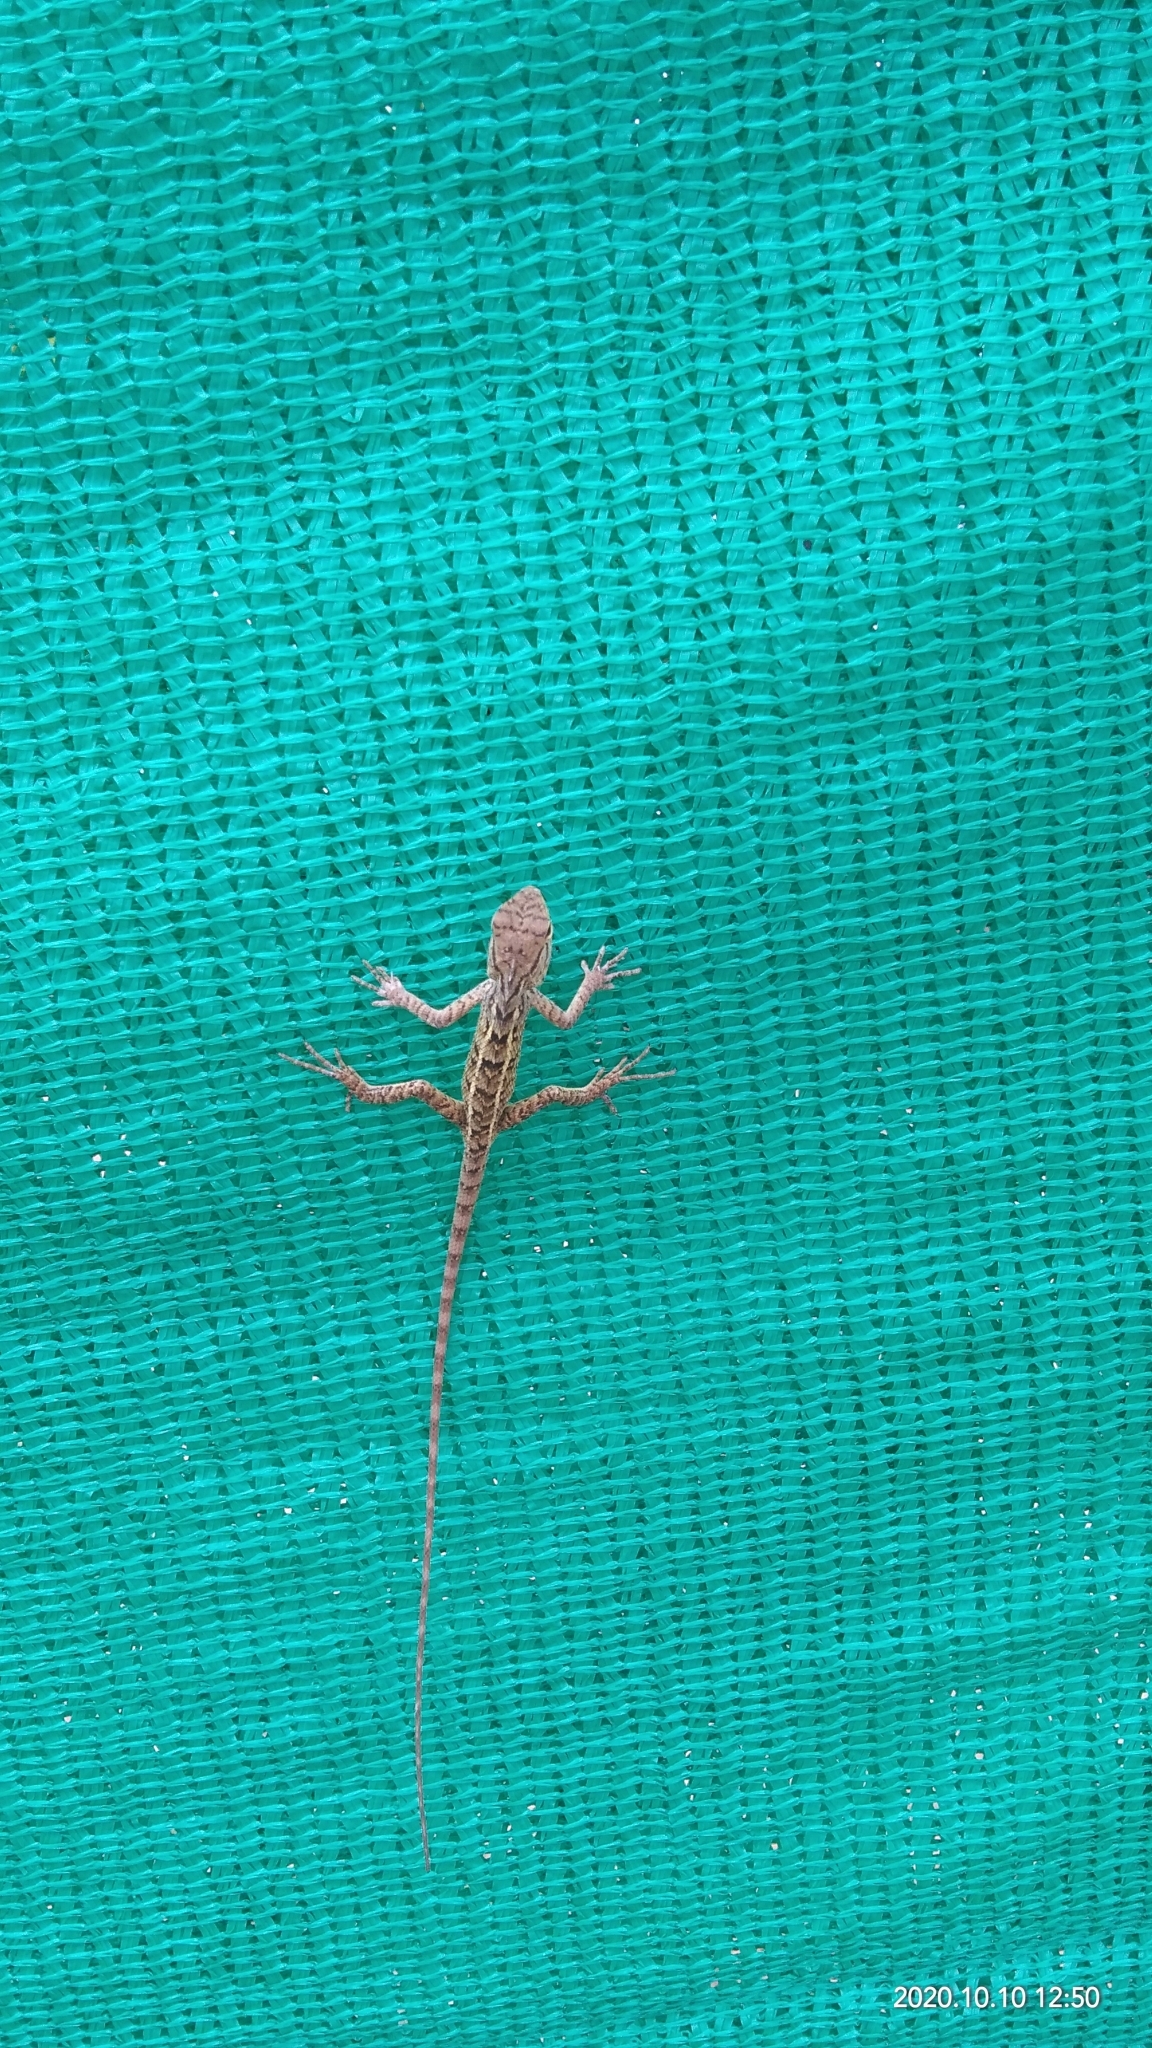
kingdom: Animalia
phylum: Chordata
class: Squamata
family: Agamidae
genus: Calotes
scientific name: Calotes versicolor
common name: Oriental garden lizard
